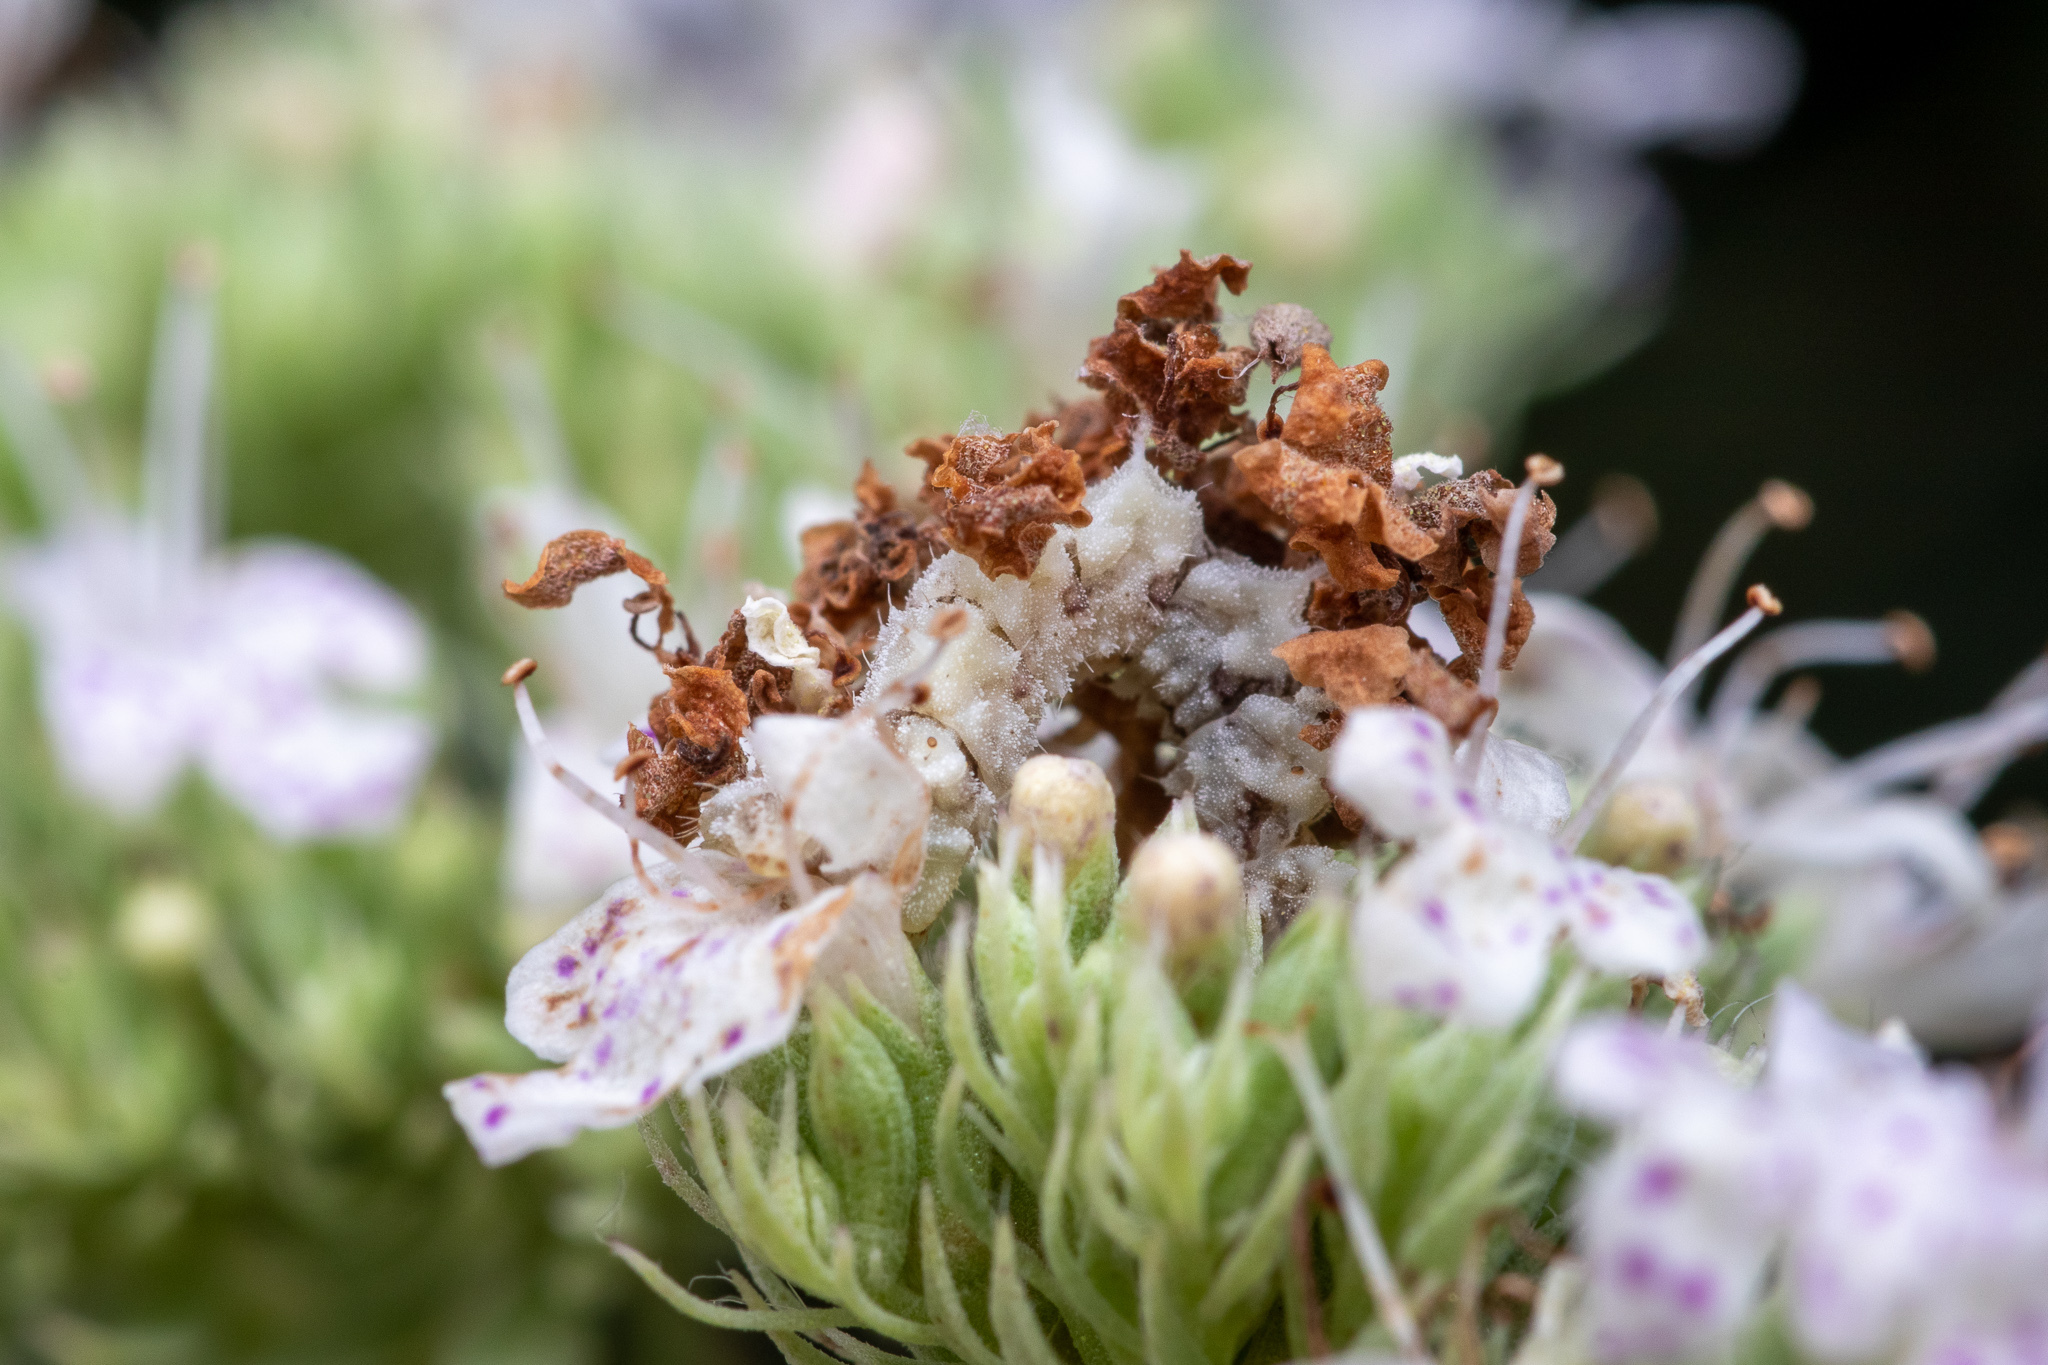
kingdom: Animalia
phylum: Arthropoda
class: Insecta
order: Lepidoptera
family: Geometridae
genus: Synchlora
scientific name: Synchlora
